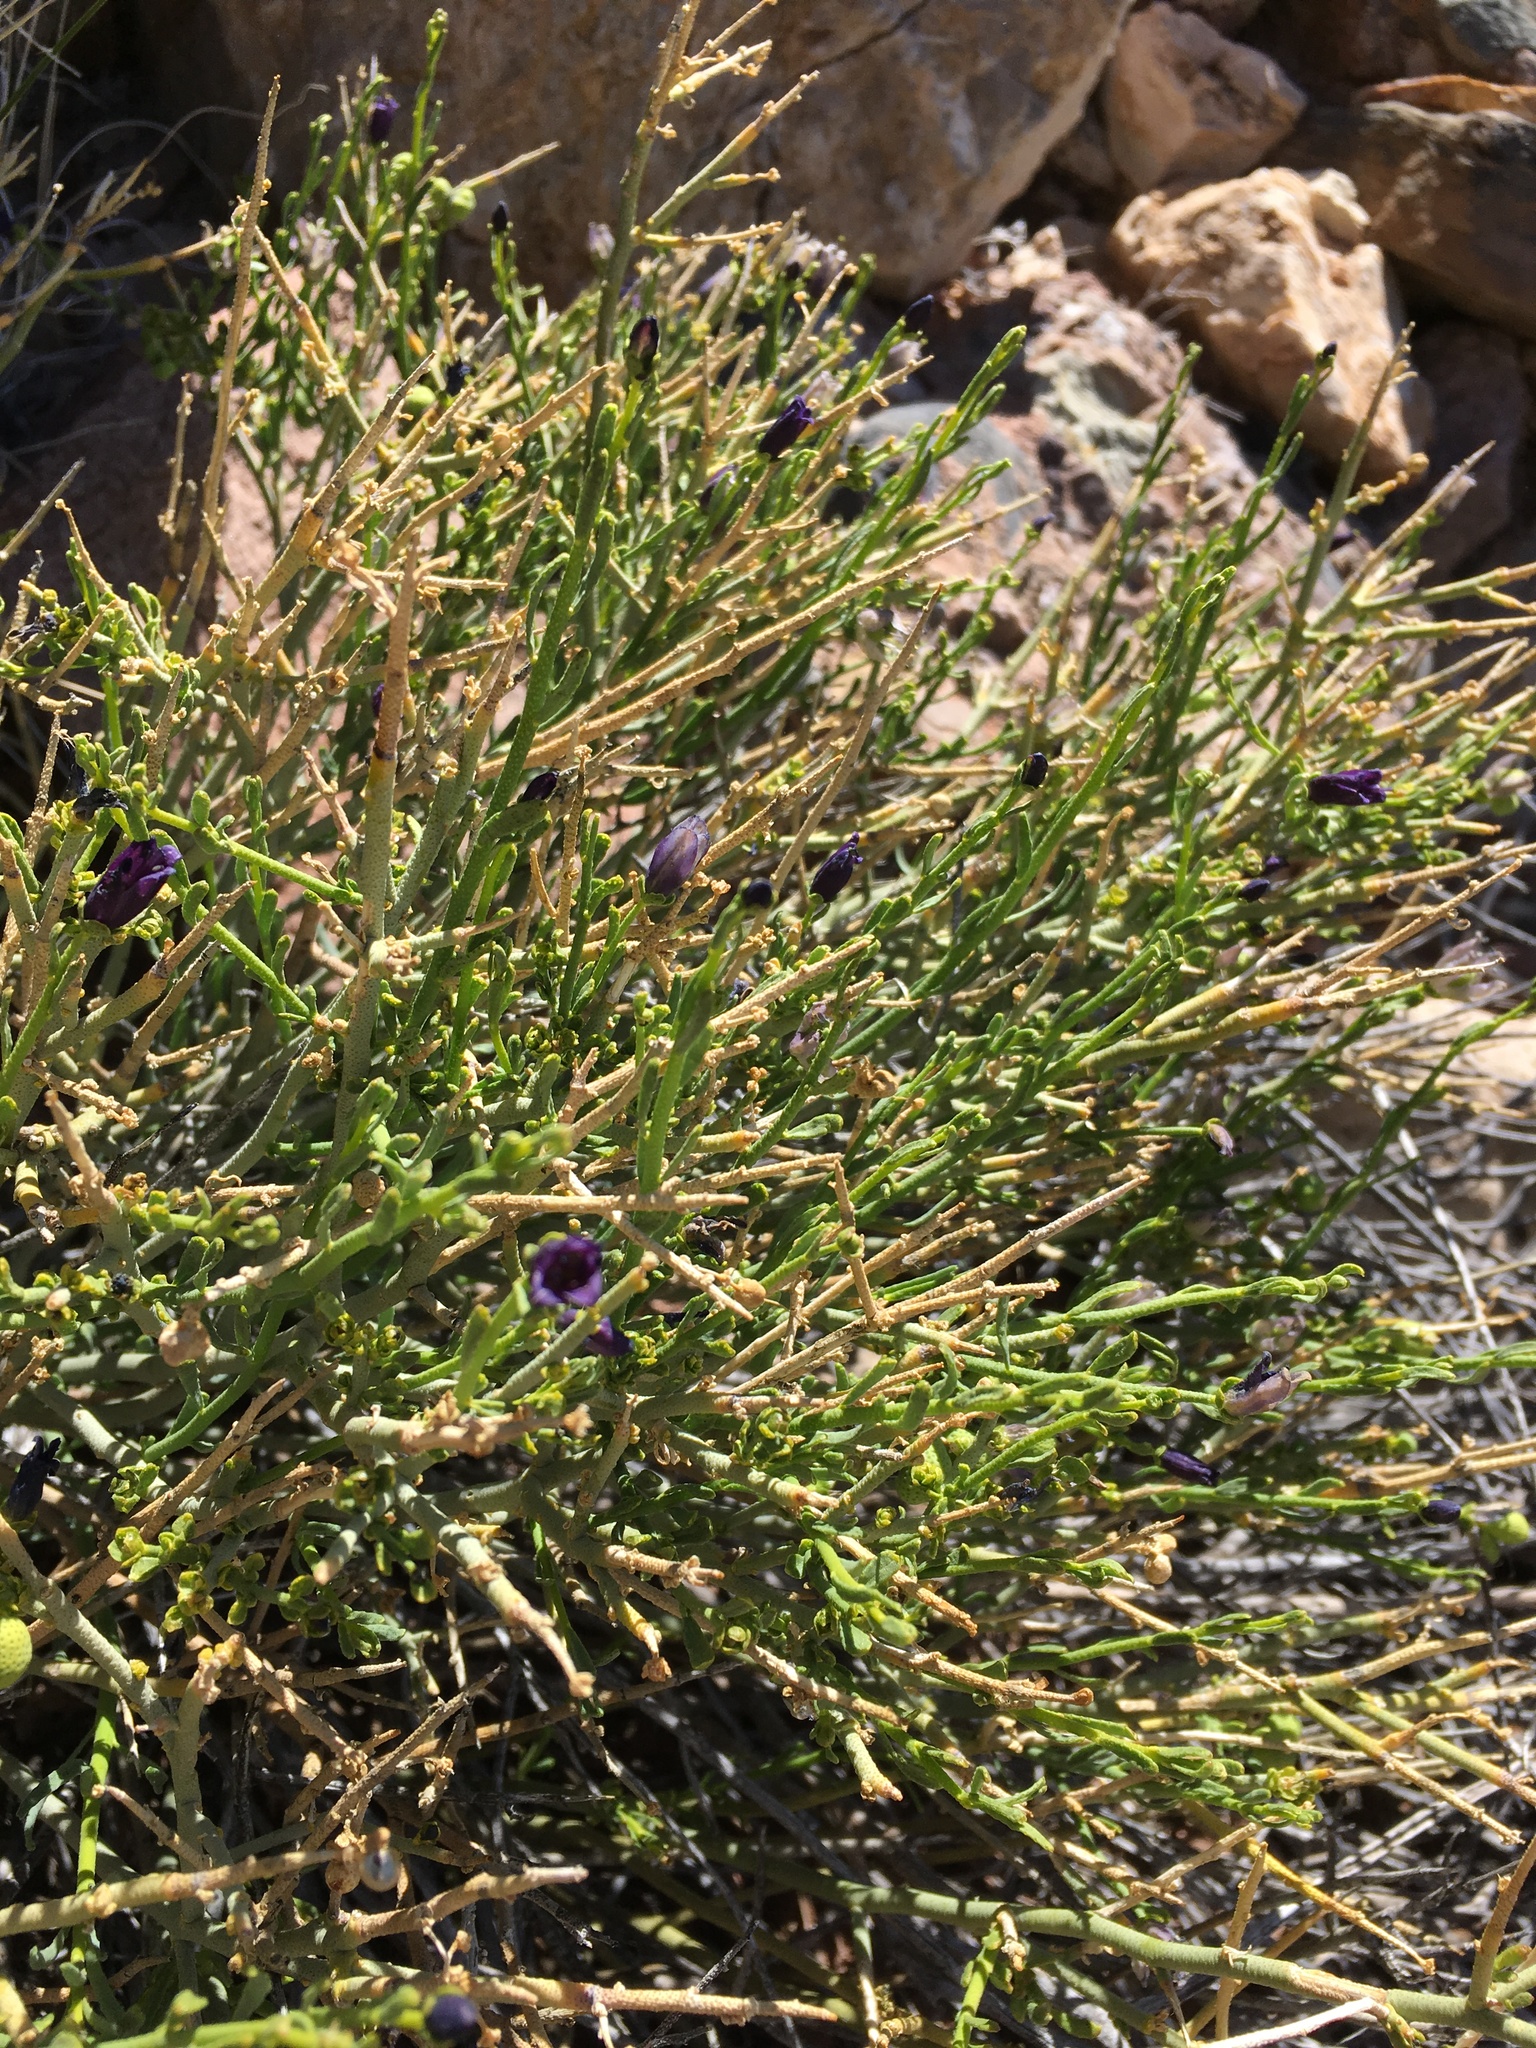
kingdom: Plantae
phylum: Tracheophyta
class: Magnoliopsida
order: Sapindales
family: Rutaceae
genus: Thamnosma
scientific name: Thamnosma montana
